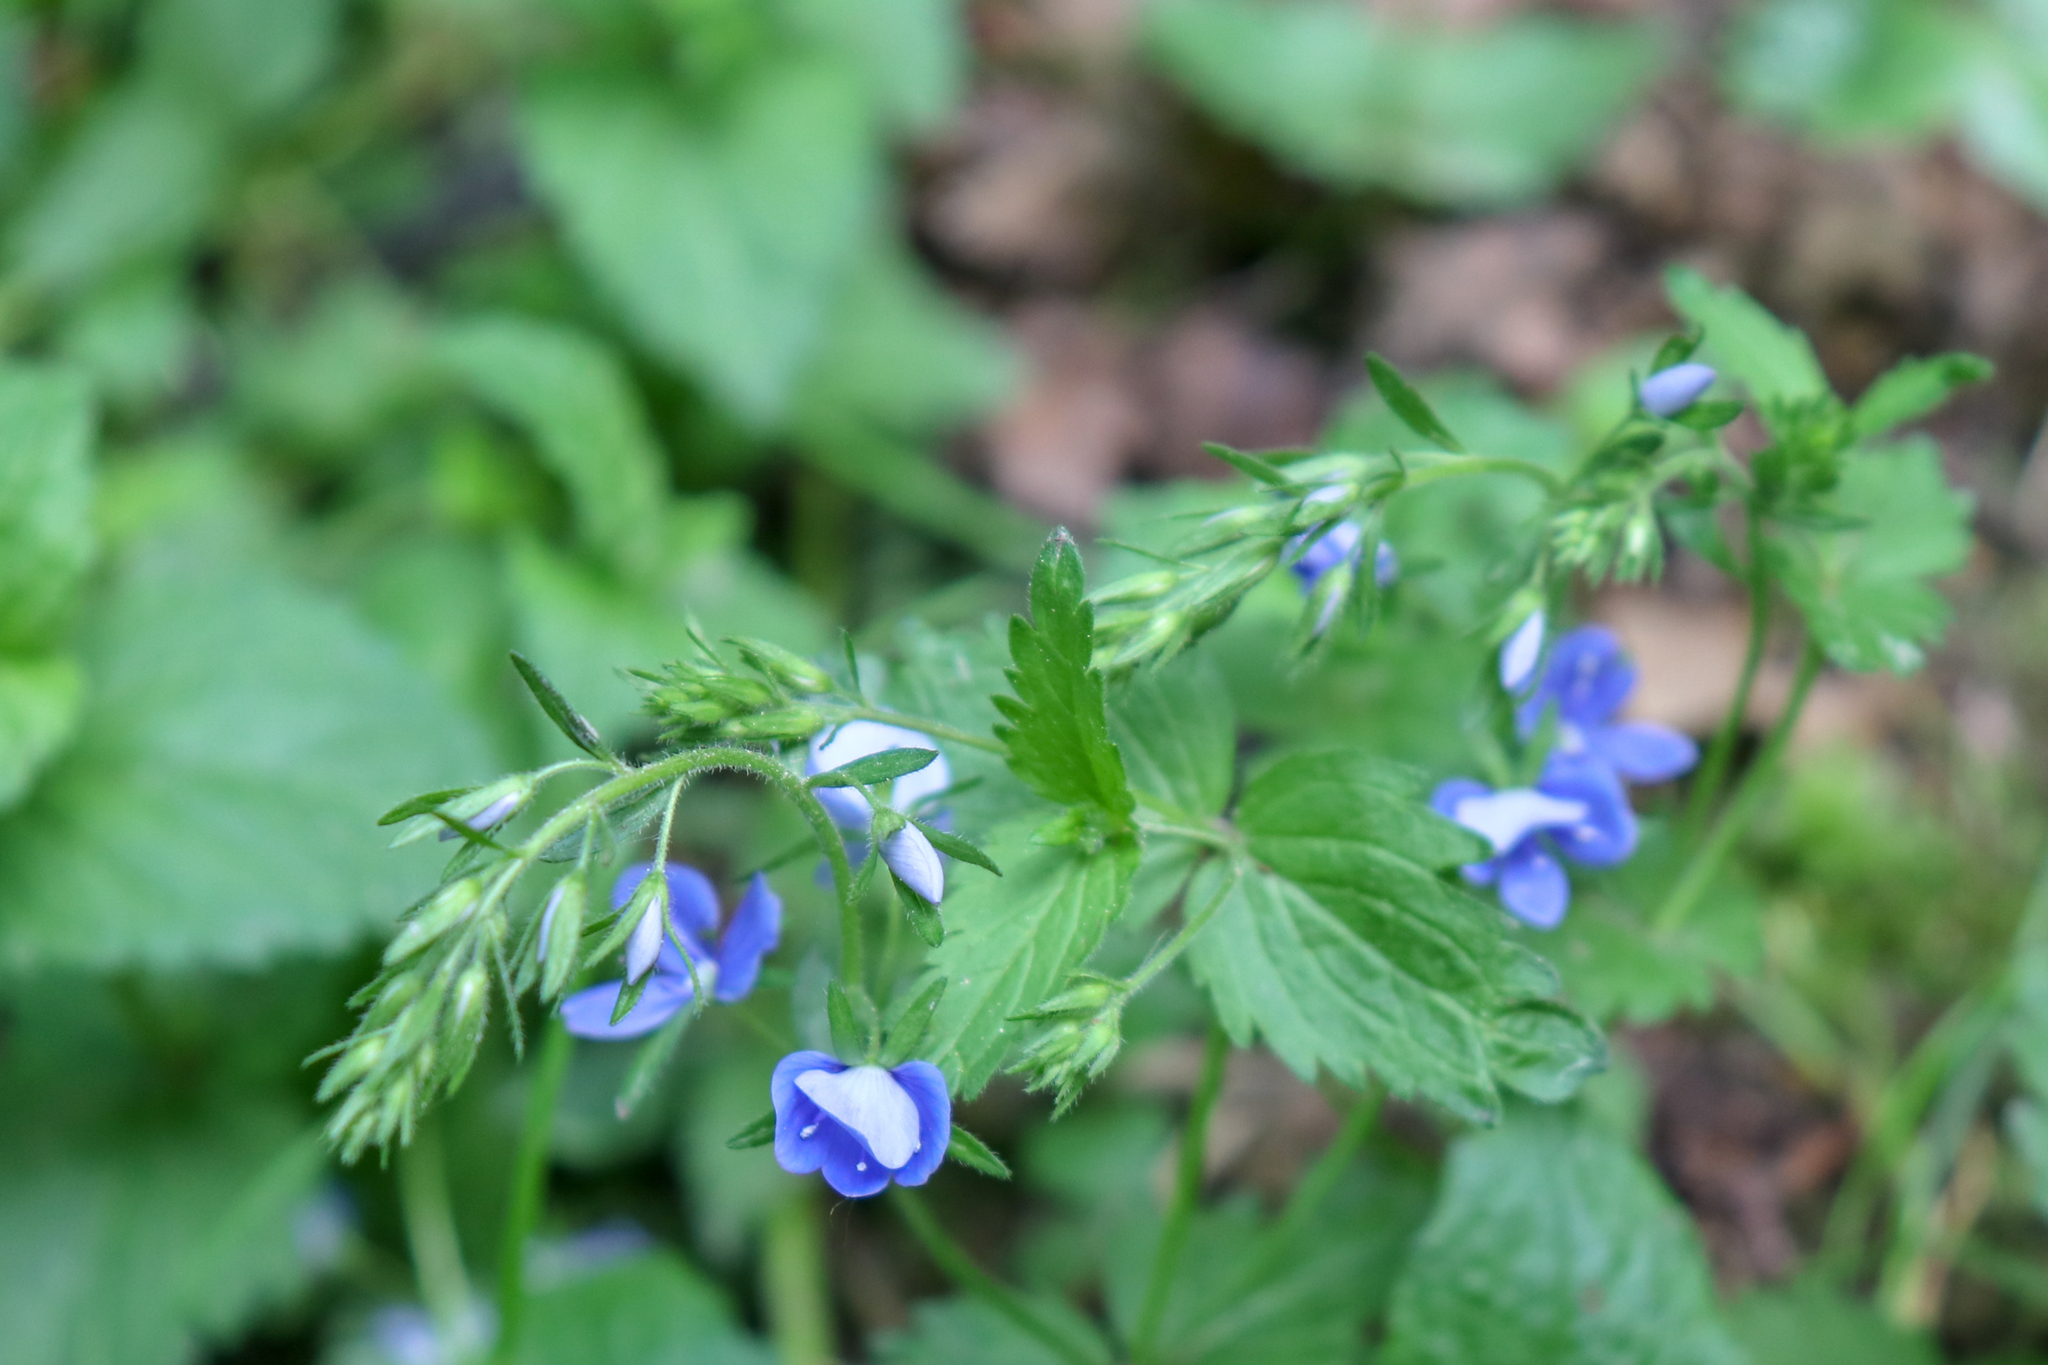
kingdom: Plantae
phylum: Tracheophyta
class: Magnoliopsida
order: Lamiales
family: Plantaginaceae
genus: Veronica
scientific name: Veronica chamaedrys
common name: Germander speedwell
